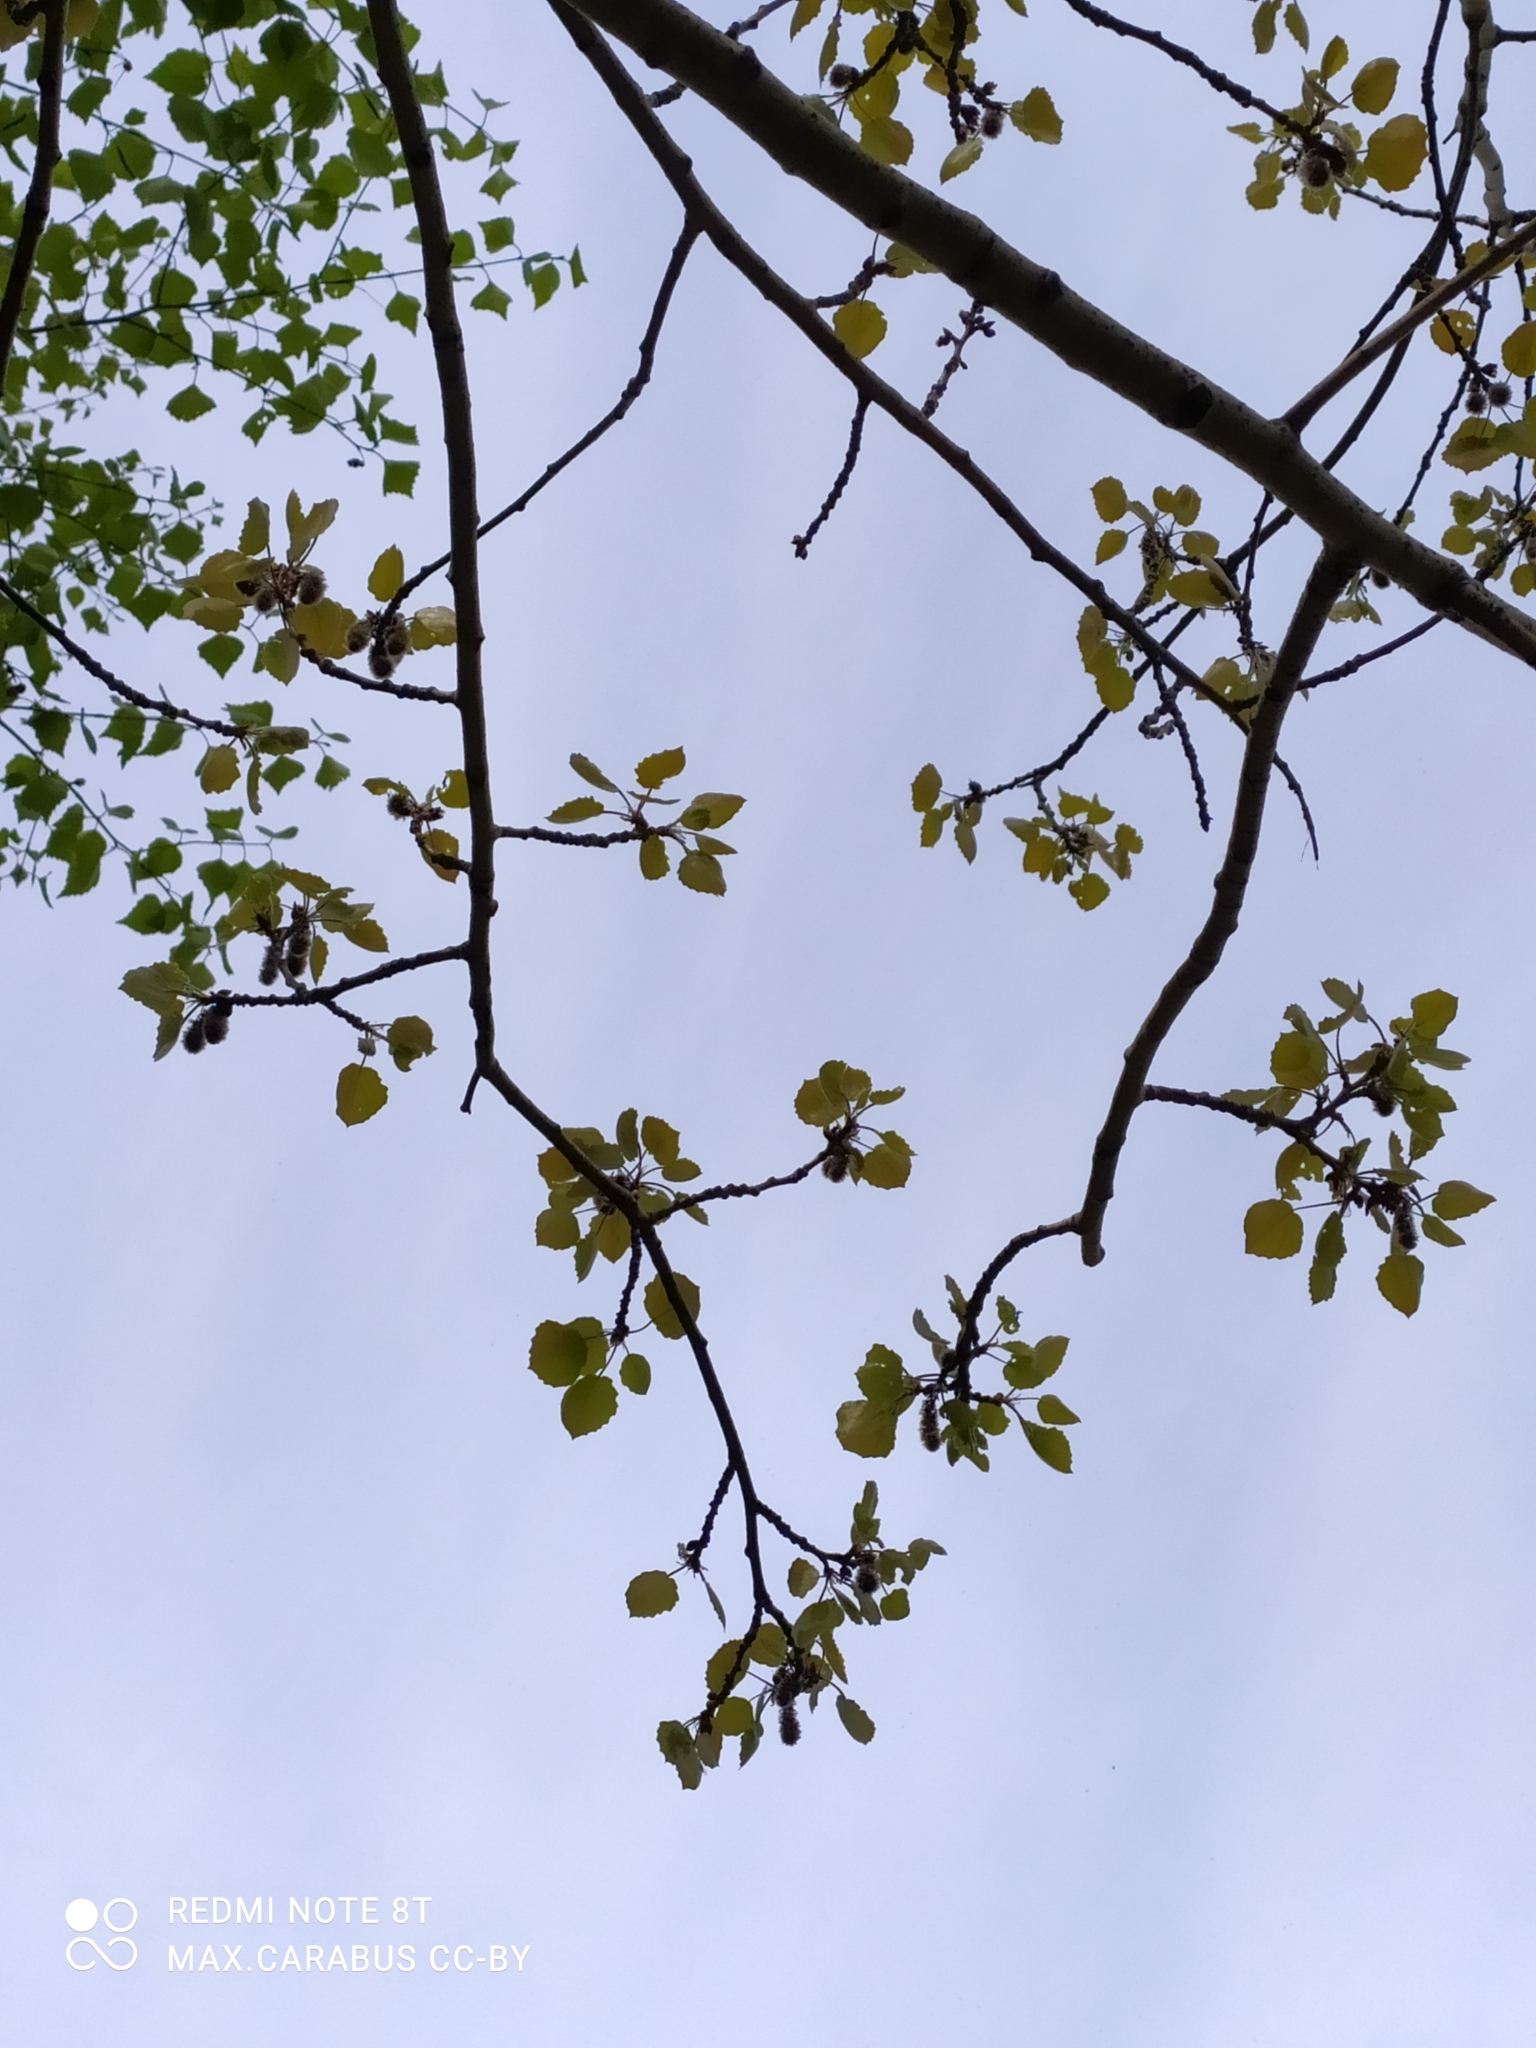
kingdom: Plantae
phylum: Tracheophyta
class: Magnoliopsida
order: Malpighiales
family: Salicaceae
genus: Populus
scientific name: Populus tremula
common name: European aspen
